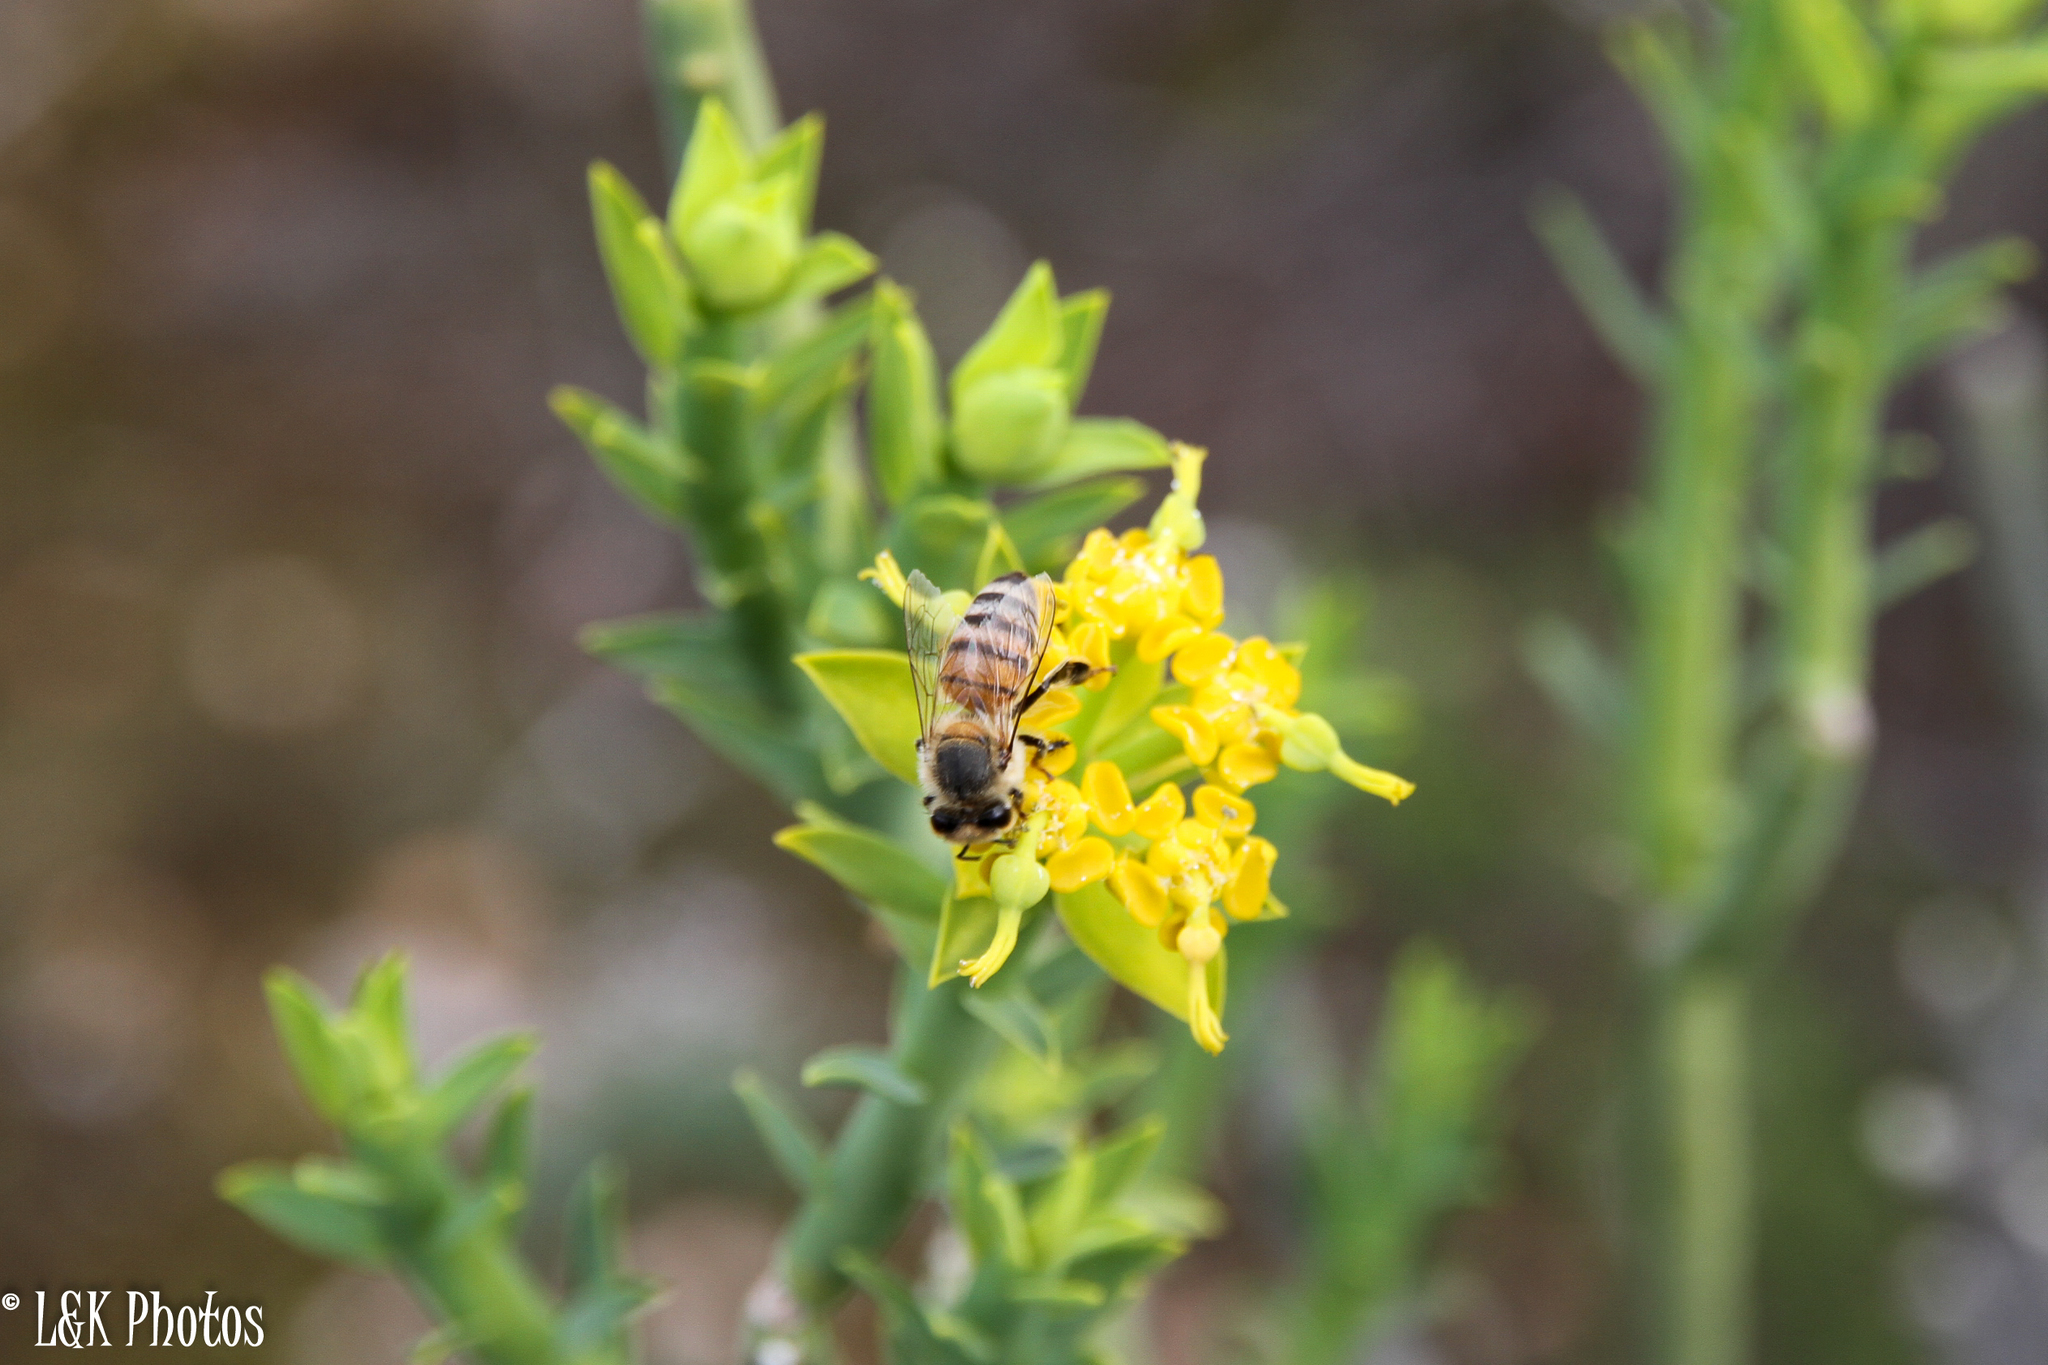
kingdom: Animalia
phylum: Arthropoda
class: Insecta
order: Hymenoptera
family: Apidae
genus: Apis
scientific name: Apis mellifera
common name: Honey bee
